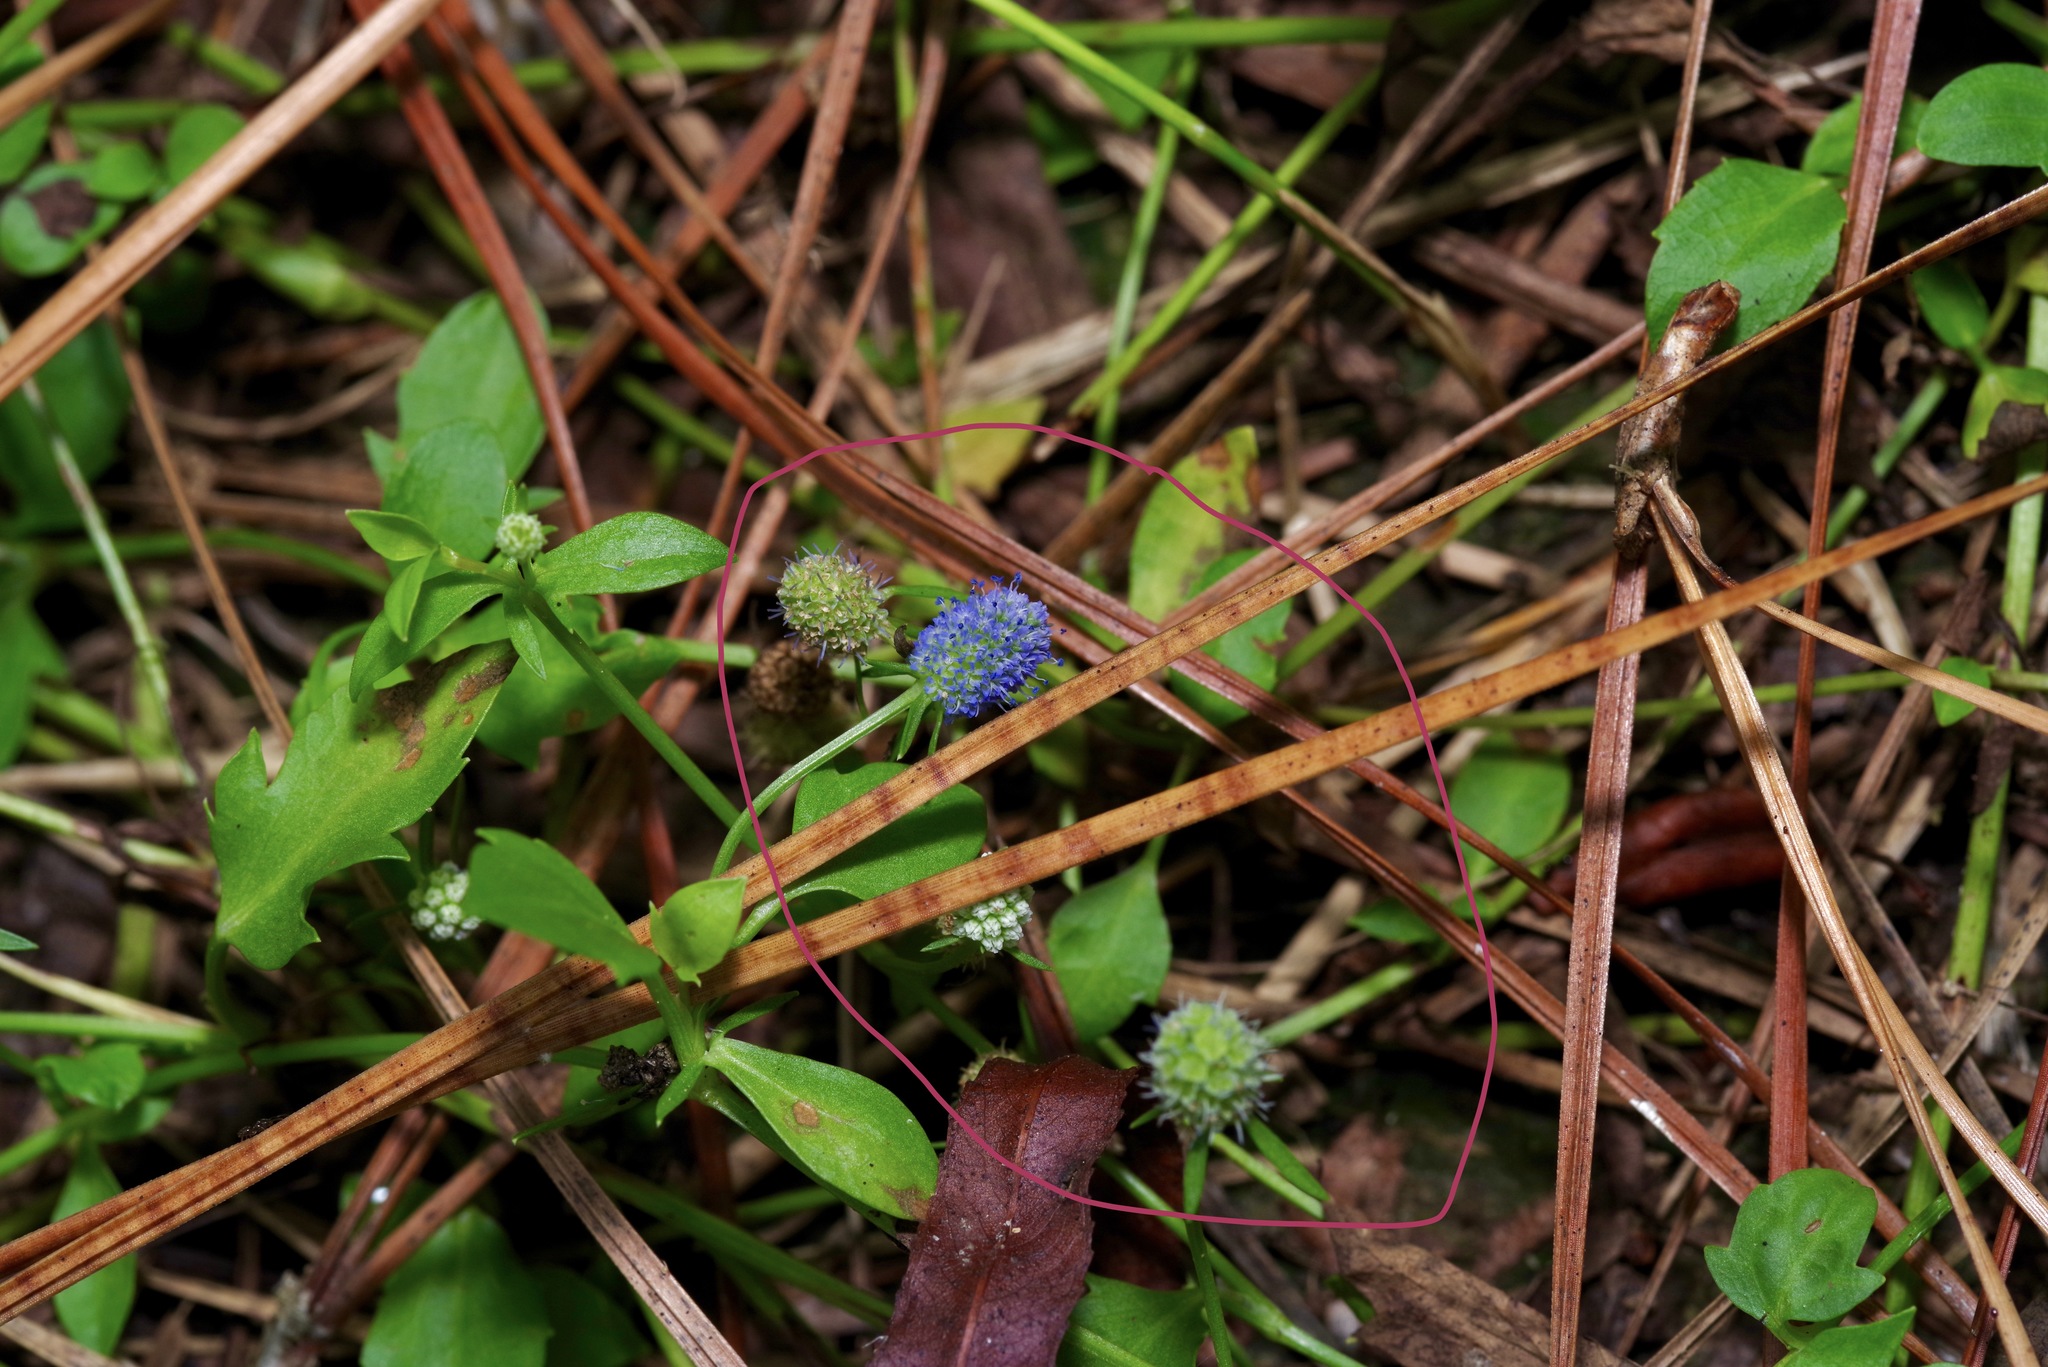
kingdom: Plantae
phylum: Tracheophyta
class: Magnoliopsida
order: Apiales
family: Apiaceae
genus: Eryngium
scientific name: Eryngium prostratum
